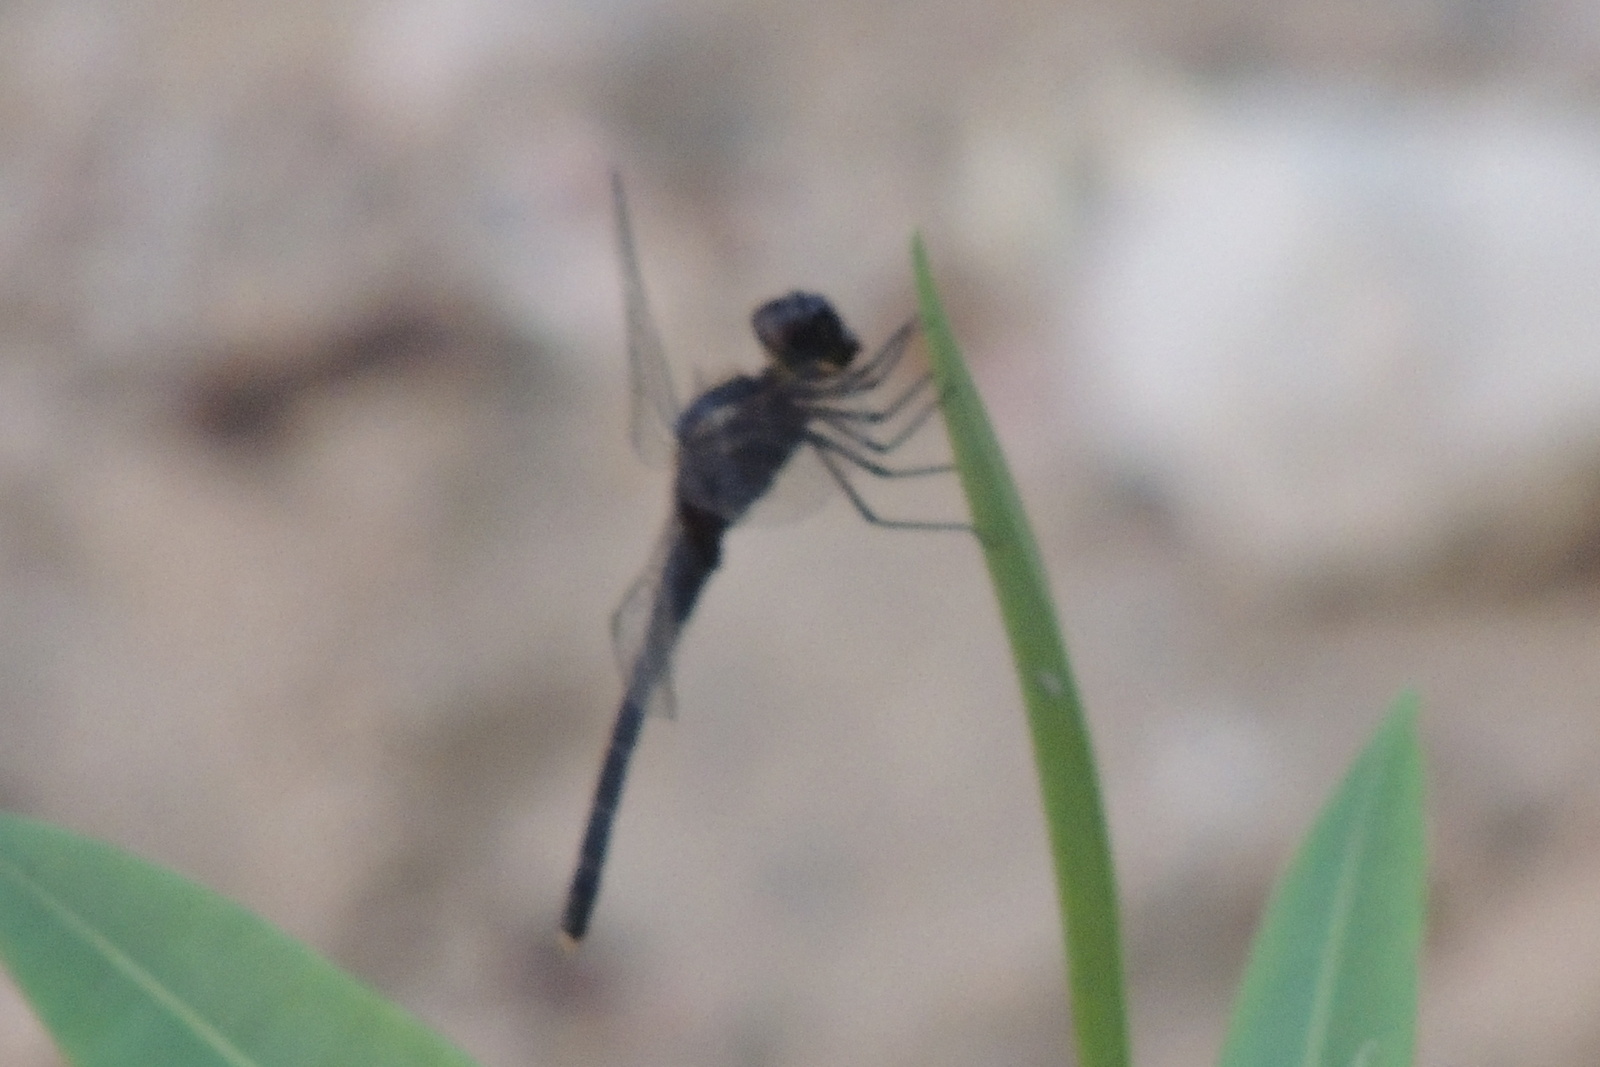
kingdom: Animalia
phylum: Arthropoda
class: Insecta
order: Odonata
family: Libellulidae
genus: Indothemis
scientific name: Indothemis carnatica
